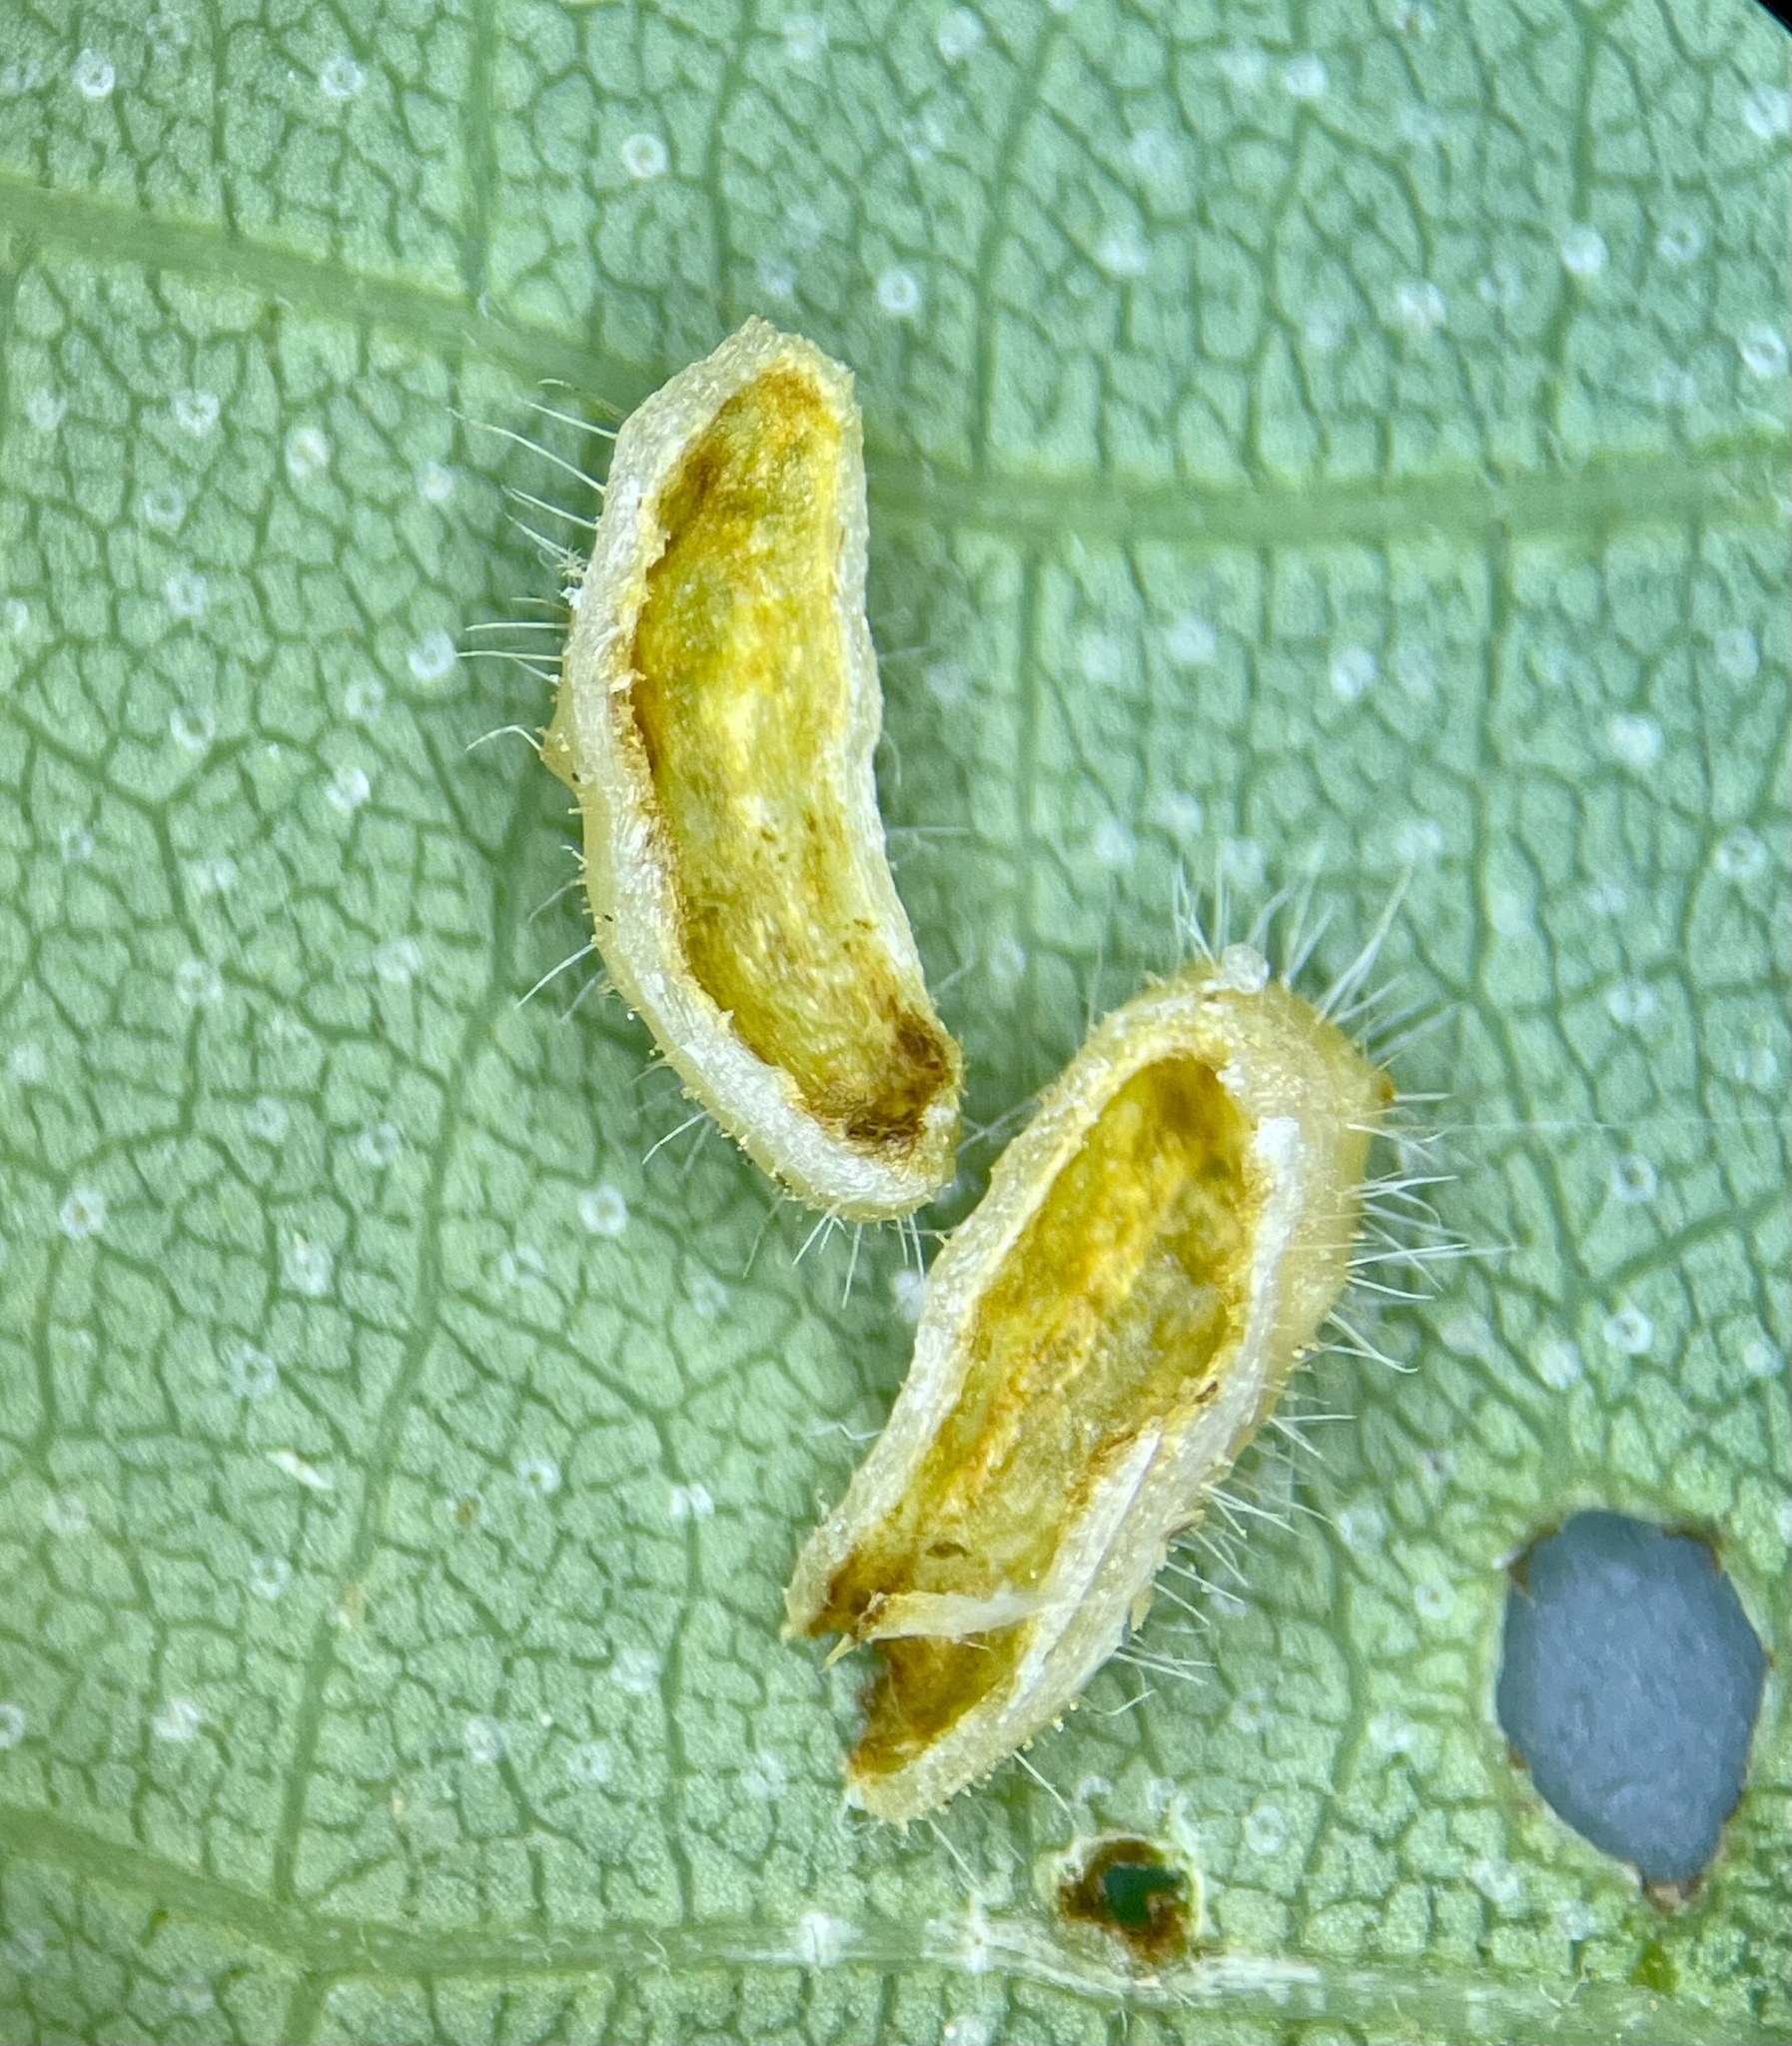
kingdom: Animalia
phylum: Arthropoda
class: Insecta
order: Diptera
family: Cecidomyiidae
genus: Contarinia
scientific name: Contarinia cucumata
